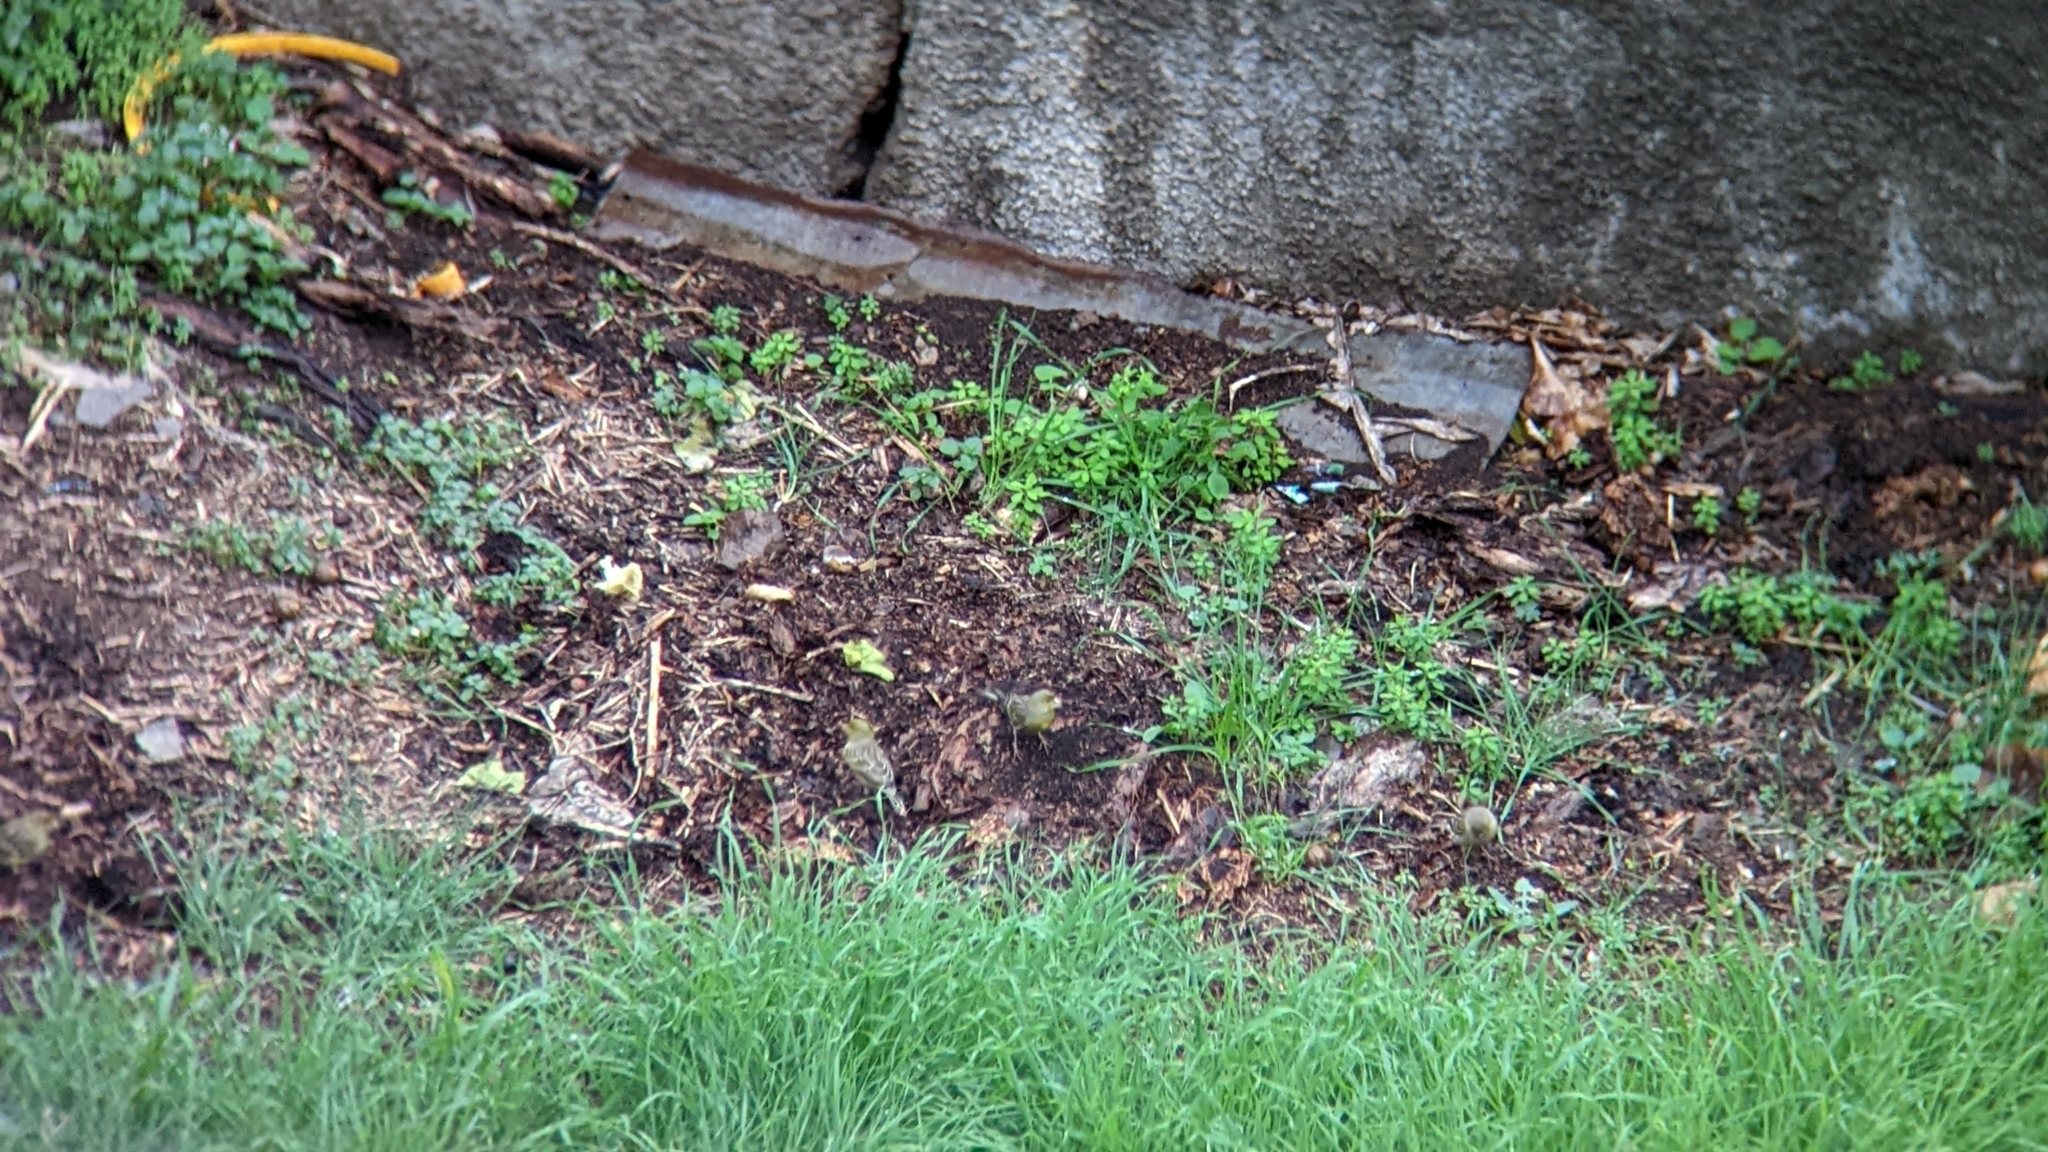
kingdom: Animalia
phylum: Chordata
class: Aves
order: Passeriformes
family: Fringillidae
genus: Serinus
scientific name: Serinus canaria
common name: Atlantic canary
